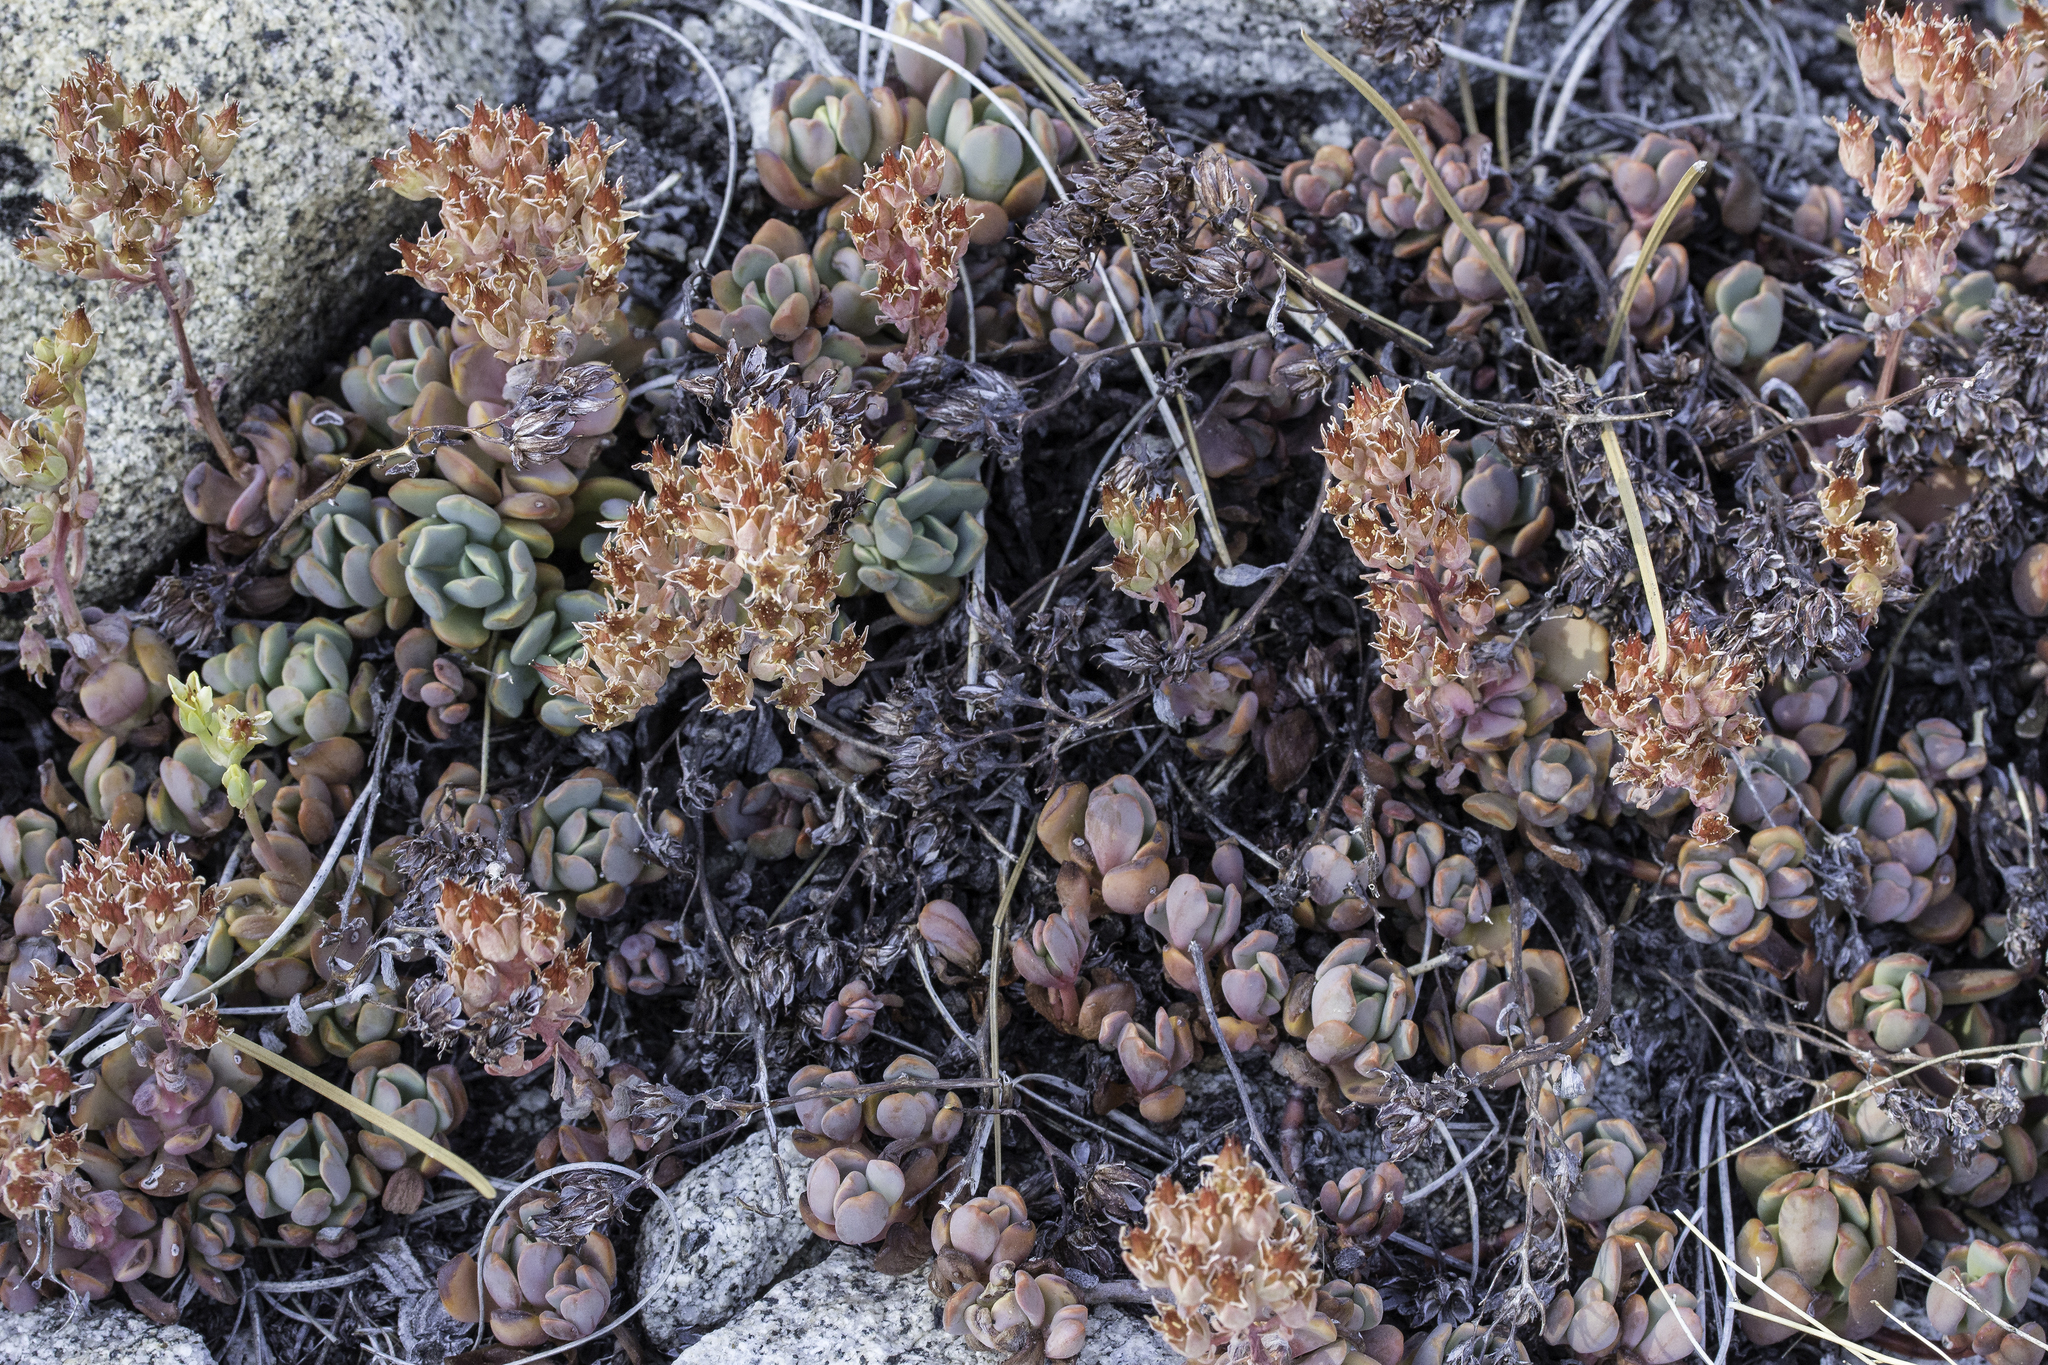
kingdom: Plantae
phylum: Tracheophyta
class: Magnoliopsida
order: Saxifragales
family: Crassulaceae
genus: Sedum
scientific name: Sedum obtusatum
